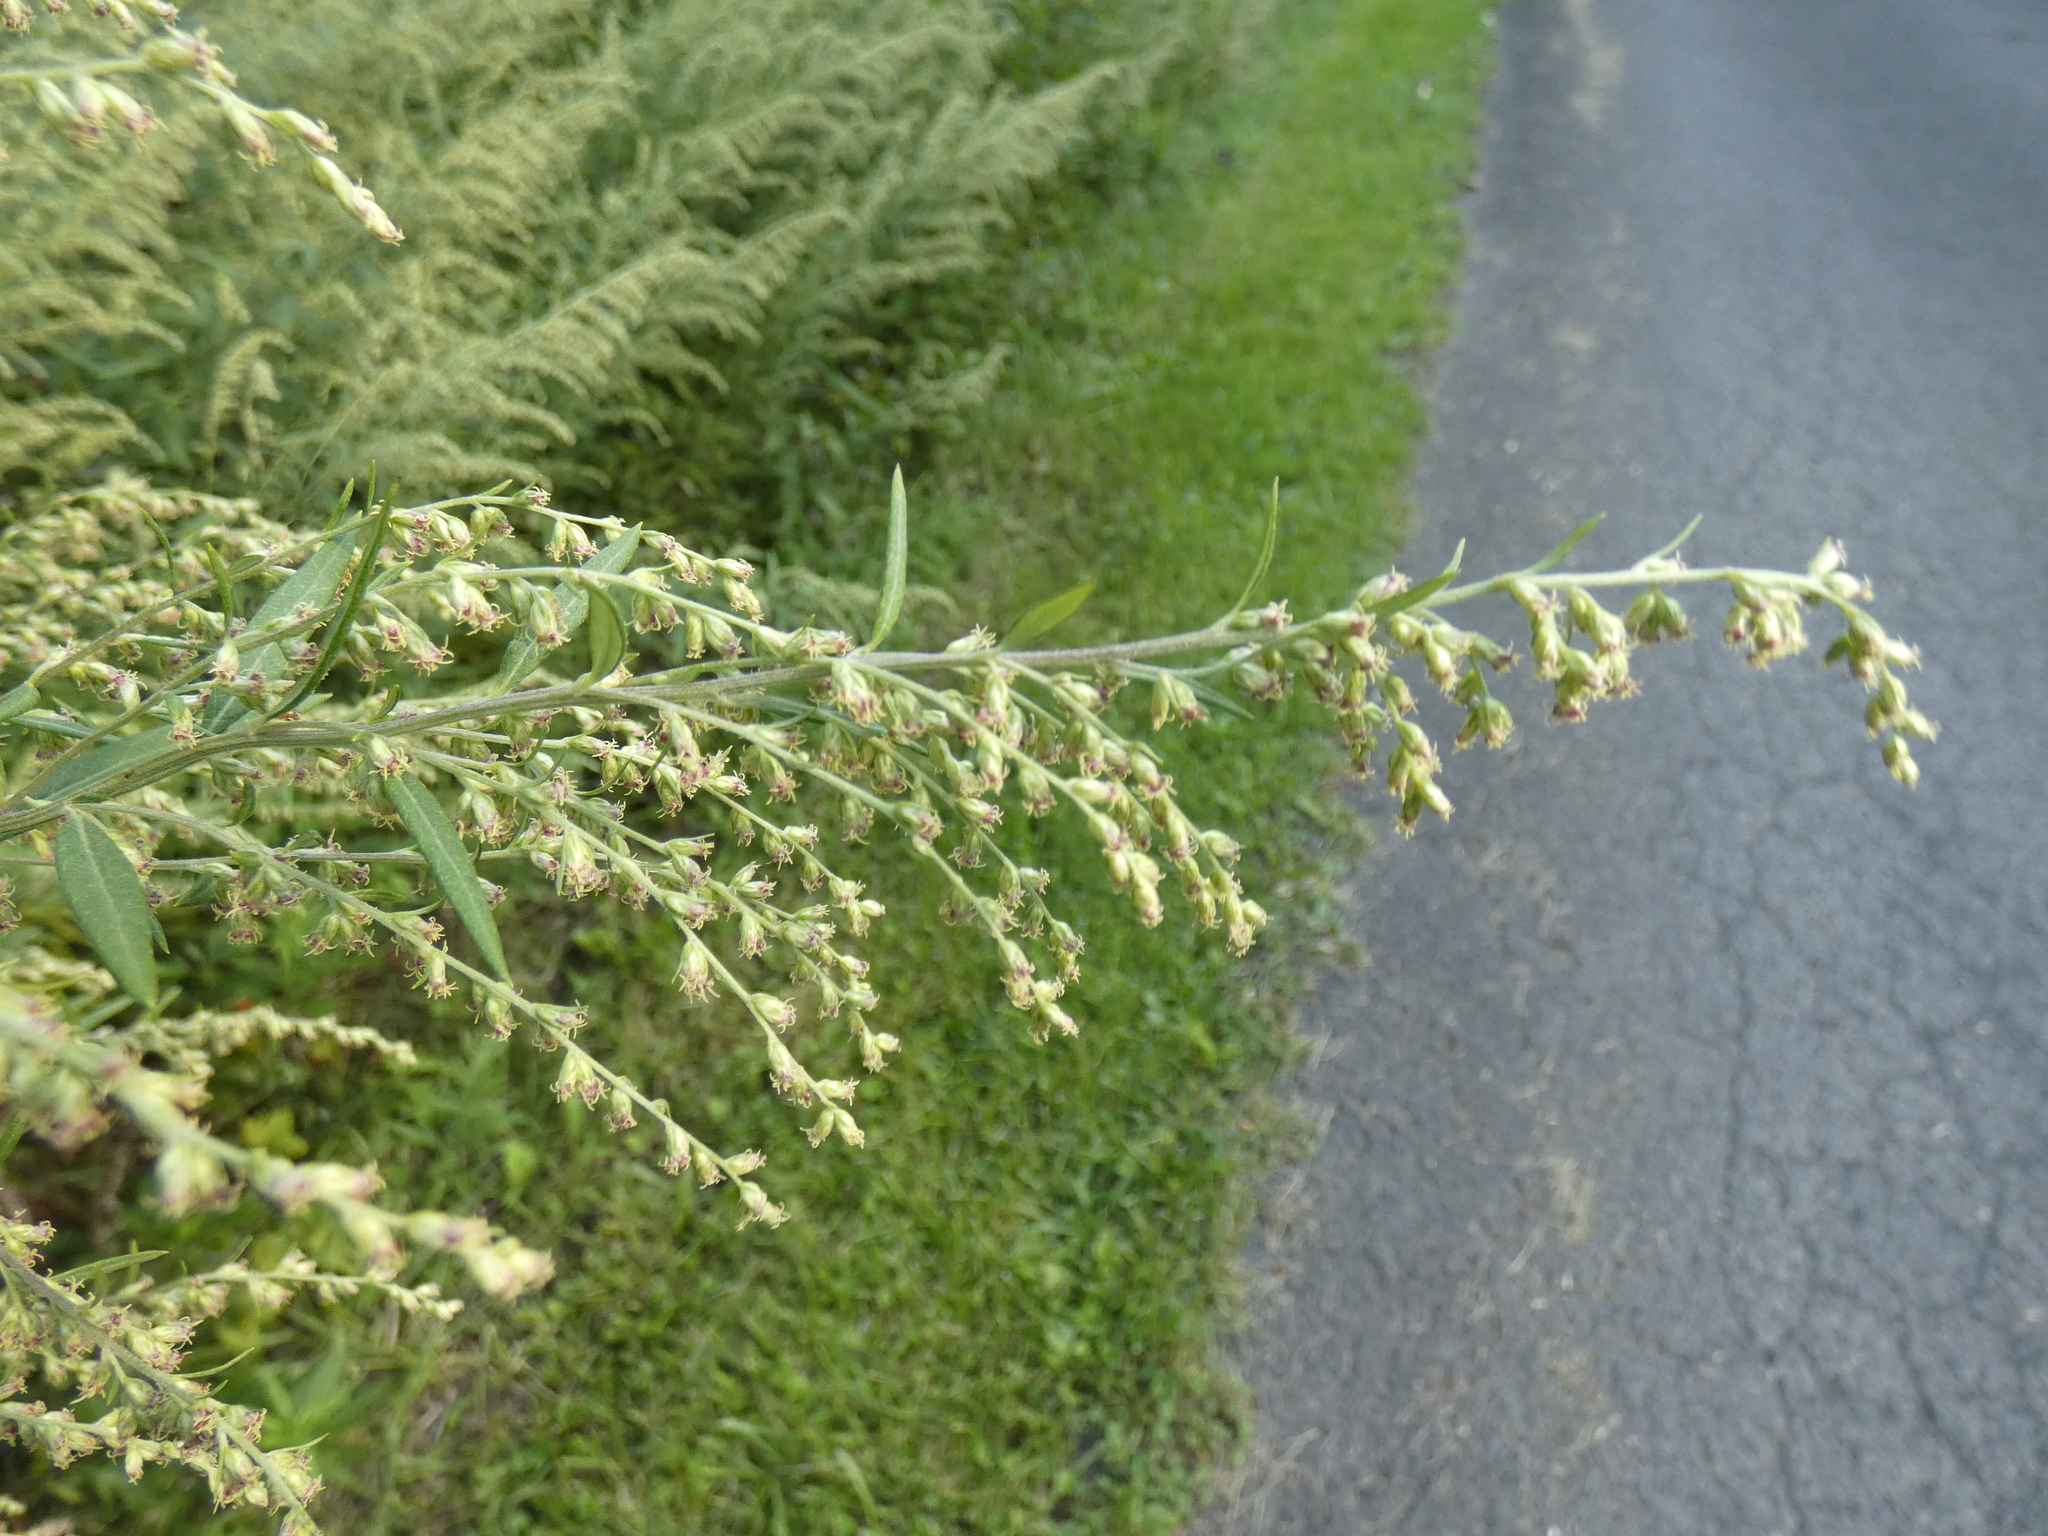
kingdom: Plantae
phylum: Tracheophyta
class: Magnoliopsida
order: Asterales
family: Asteraceae
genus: Artemisia
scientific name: Artemisia vulgaris
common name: Mugwort
